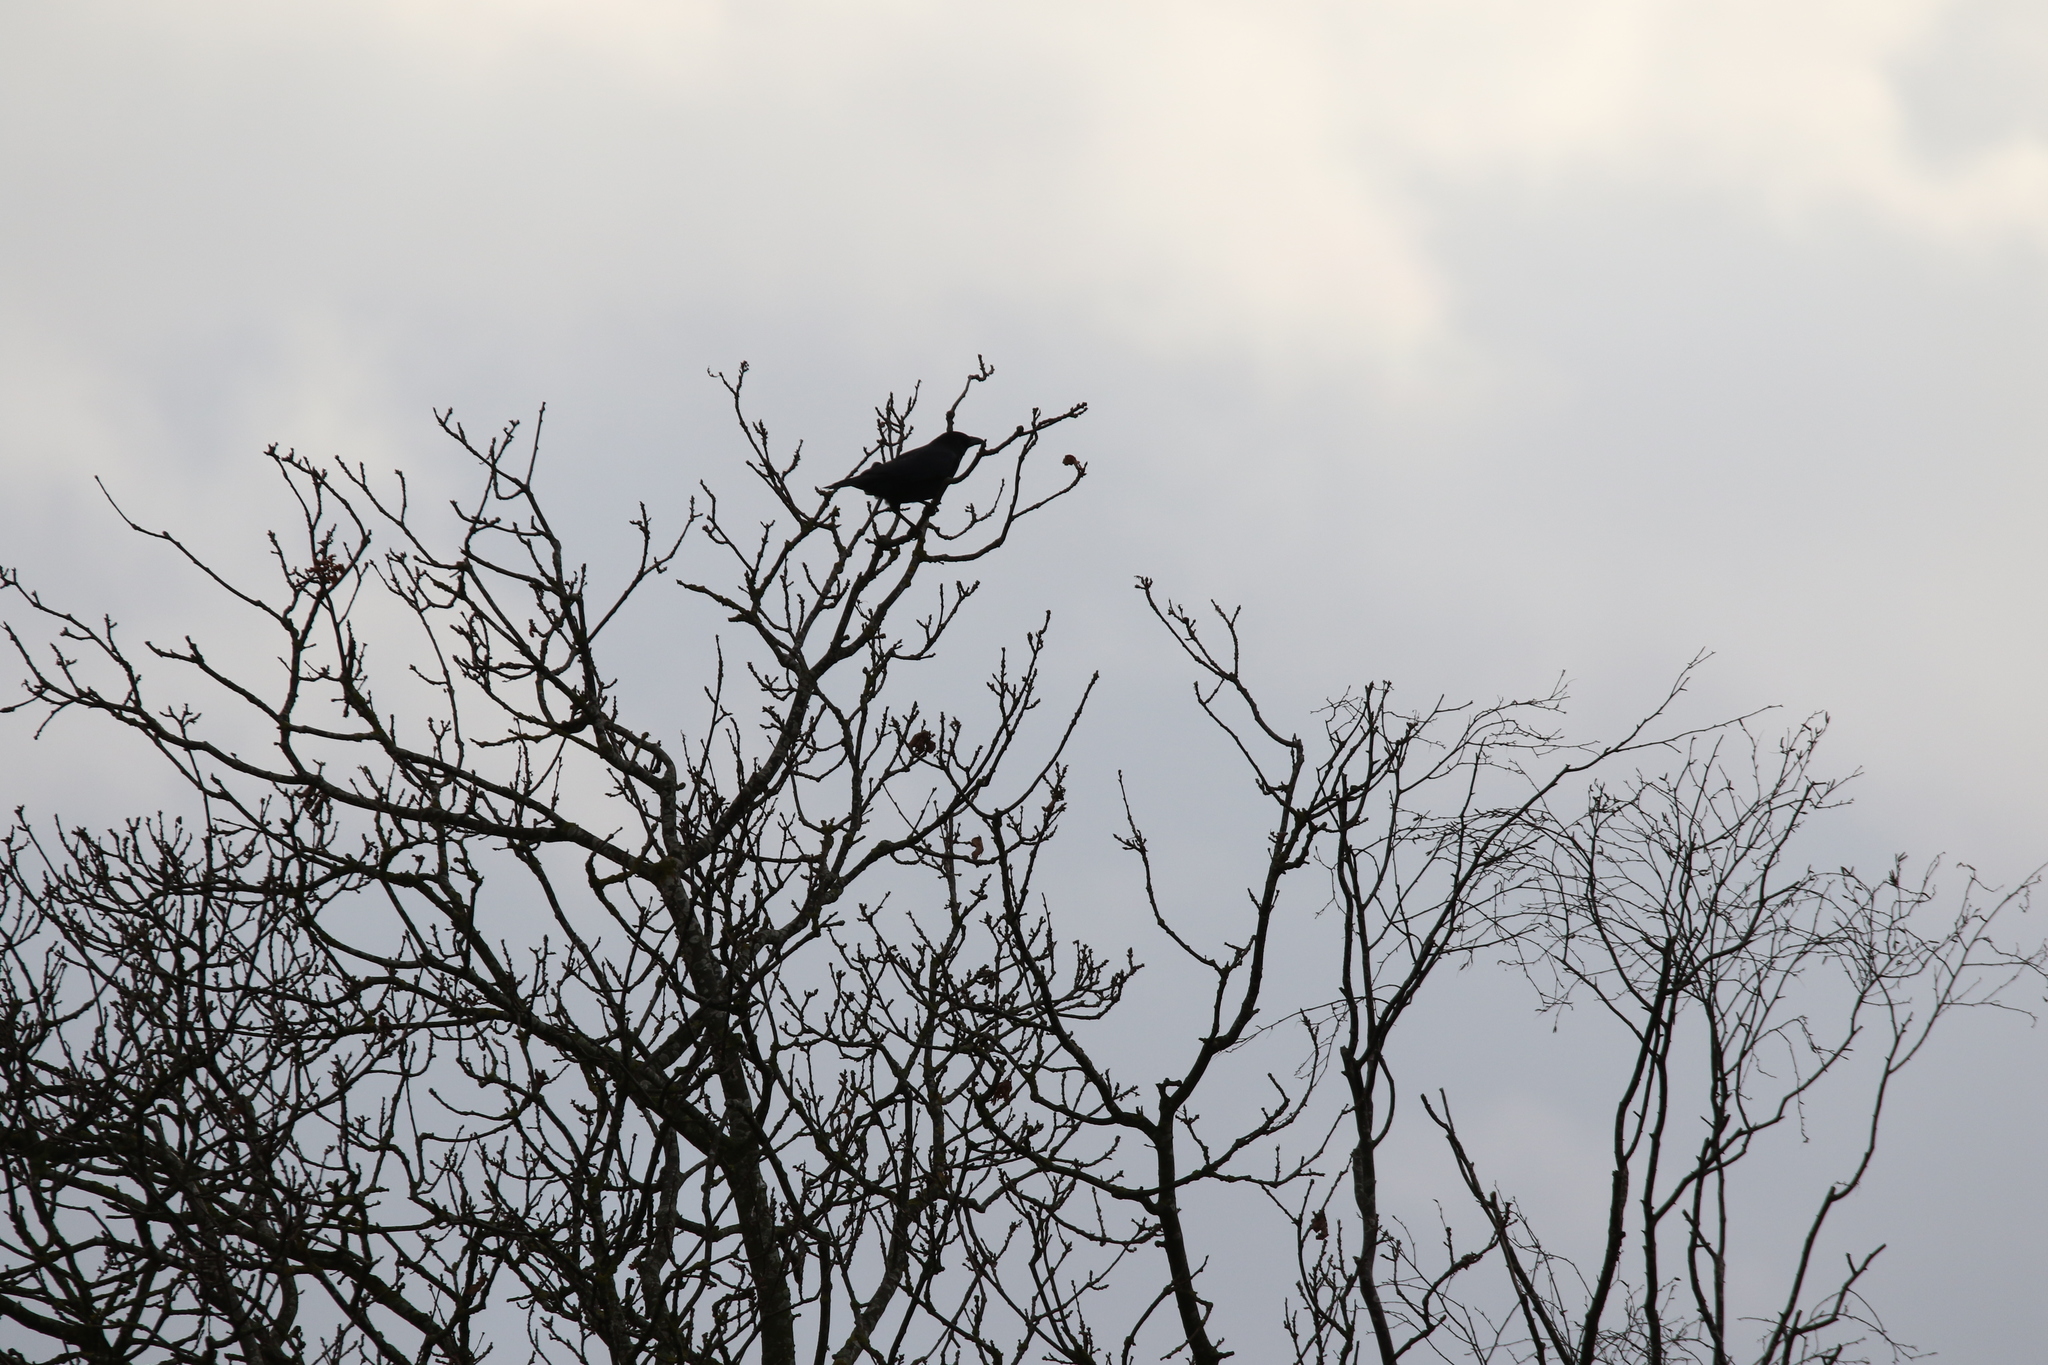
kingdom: Animalia
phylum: Chordata
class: Aves
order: Passeriformes
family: Corvidae
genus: Corvus
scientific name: Corvus corone
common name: Carrion crow
